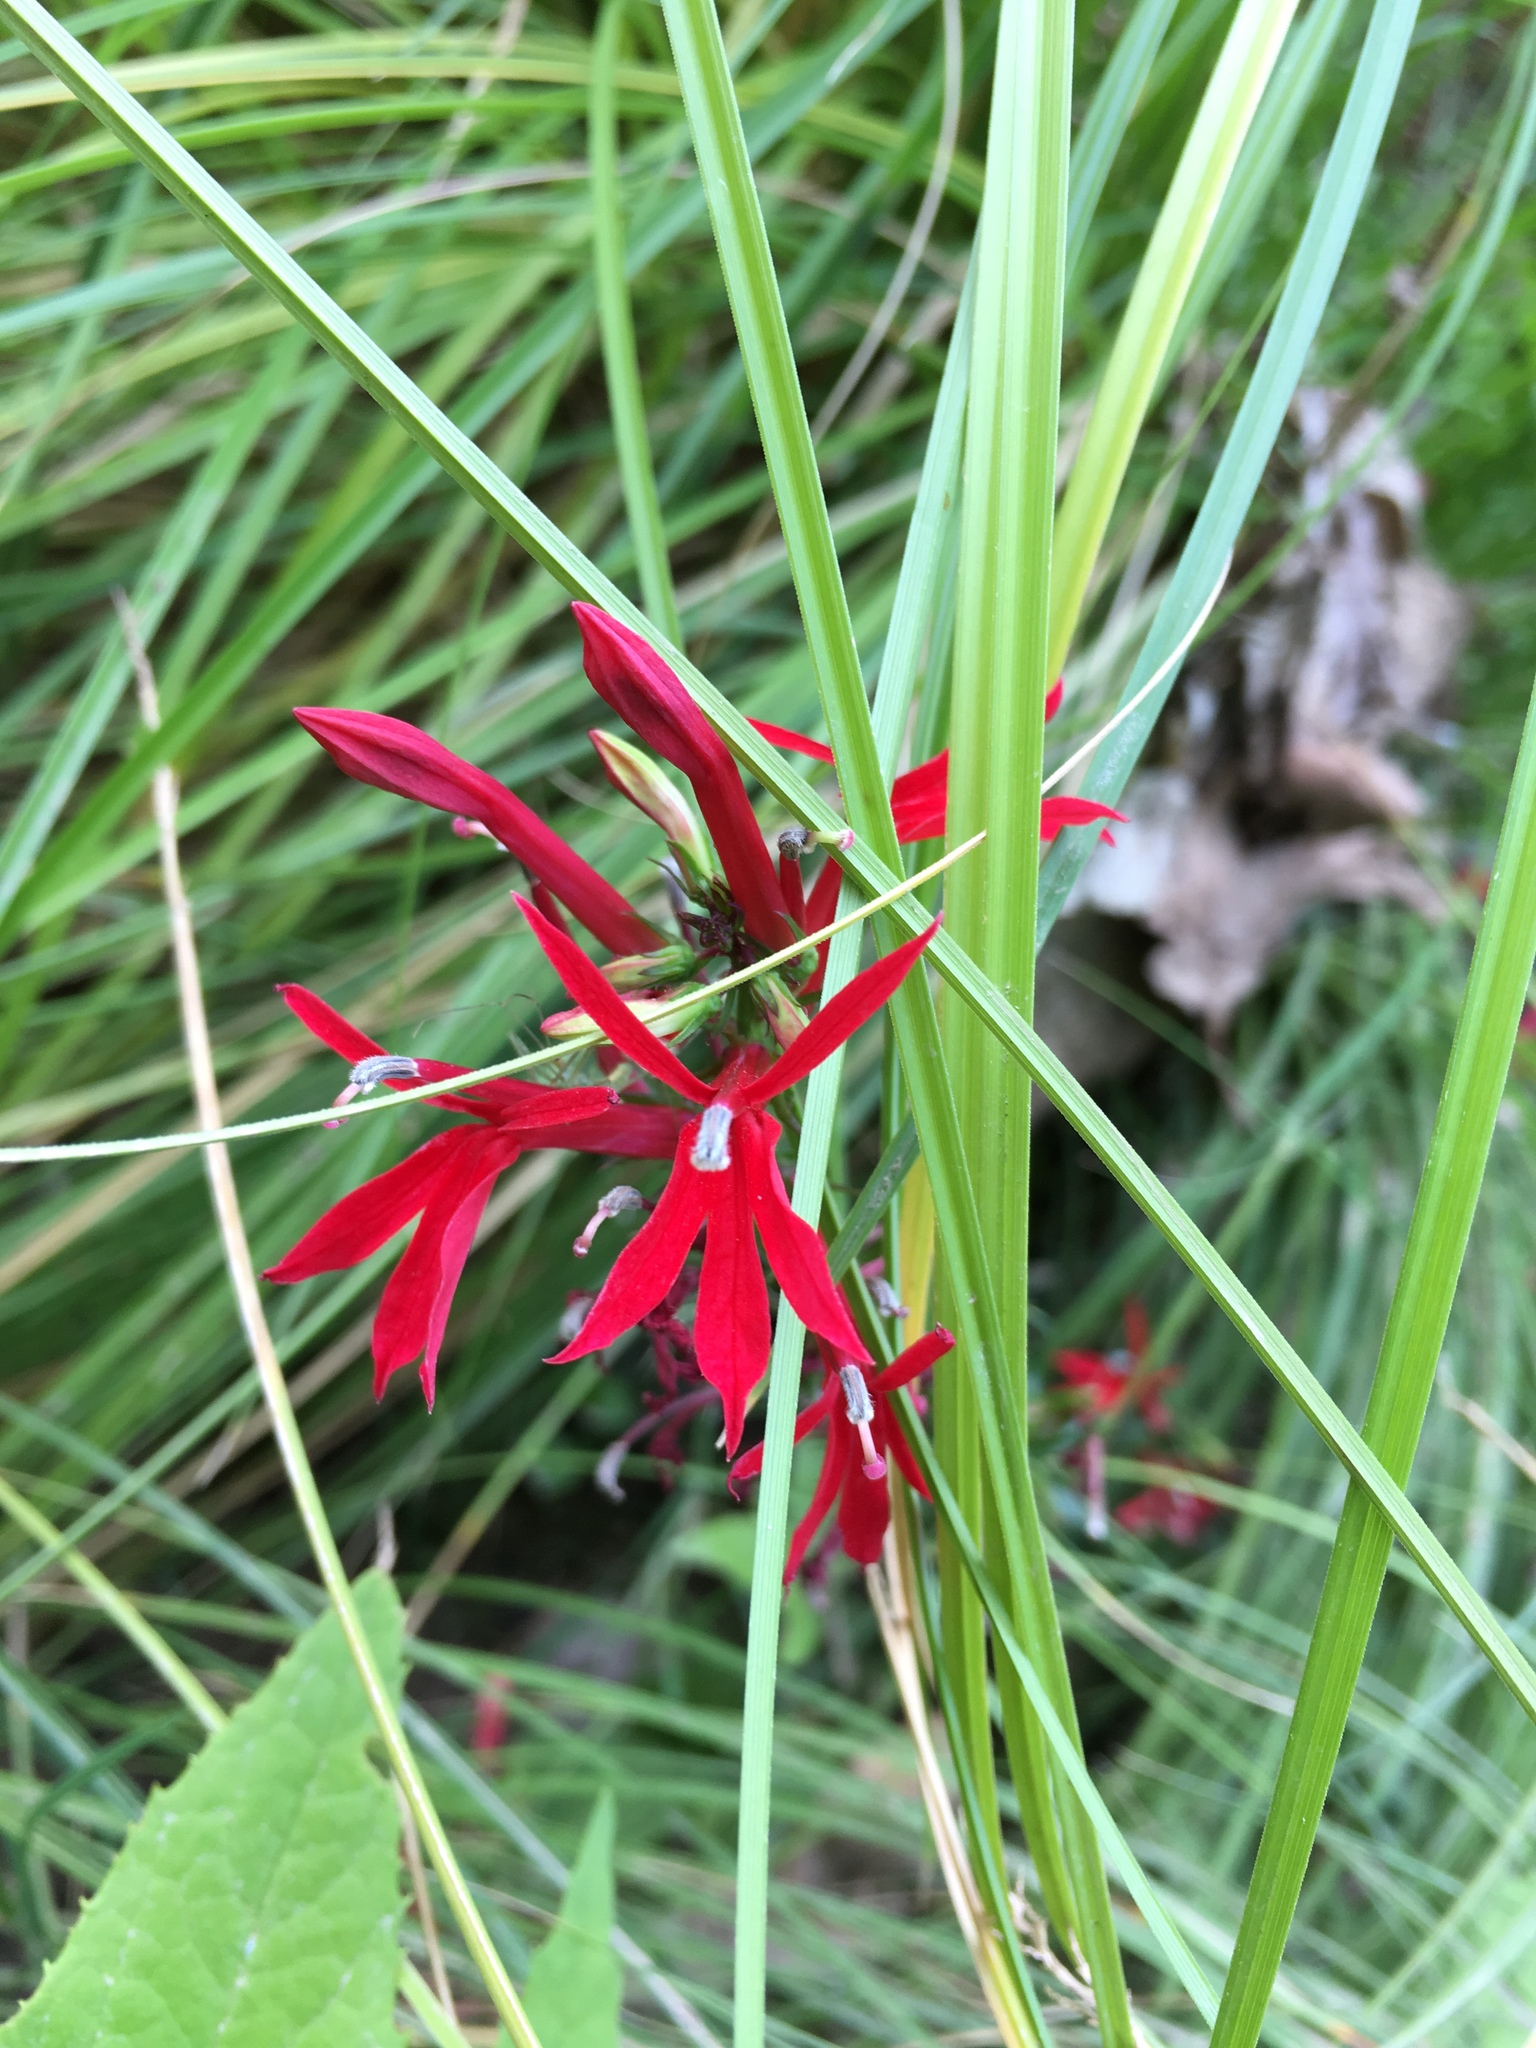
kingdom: Plantae
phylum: Tracheophyta
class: Magnoliopsida
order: Asterales
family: Campanulaceae
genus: Lobelia
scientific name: Lobelia cardinalis
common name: Cardinal flower
